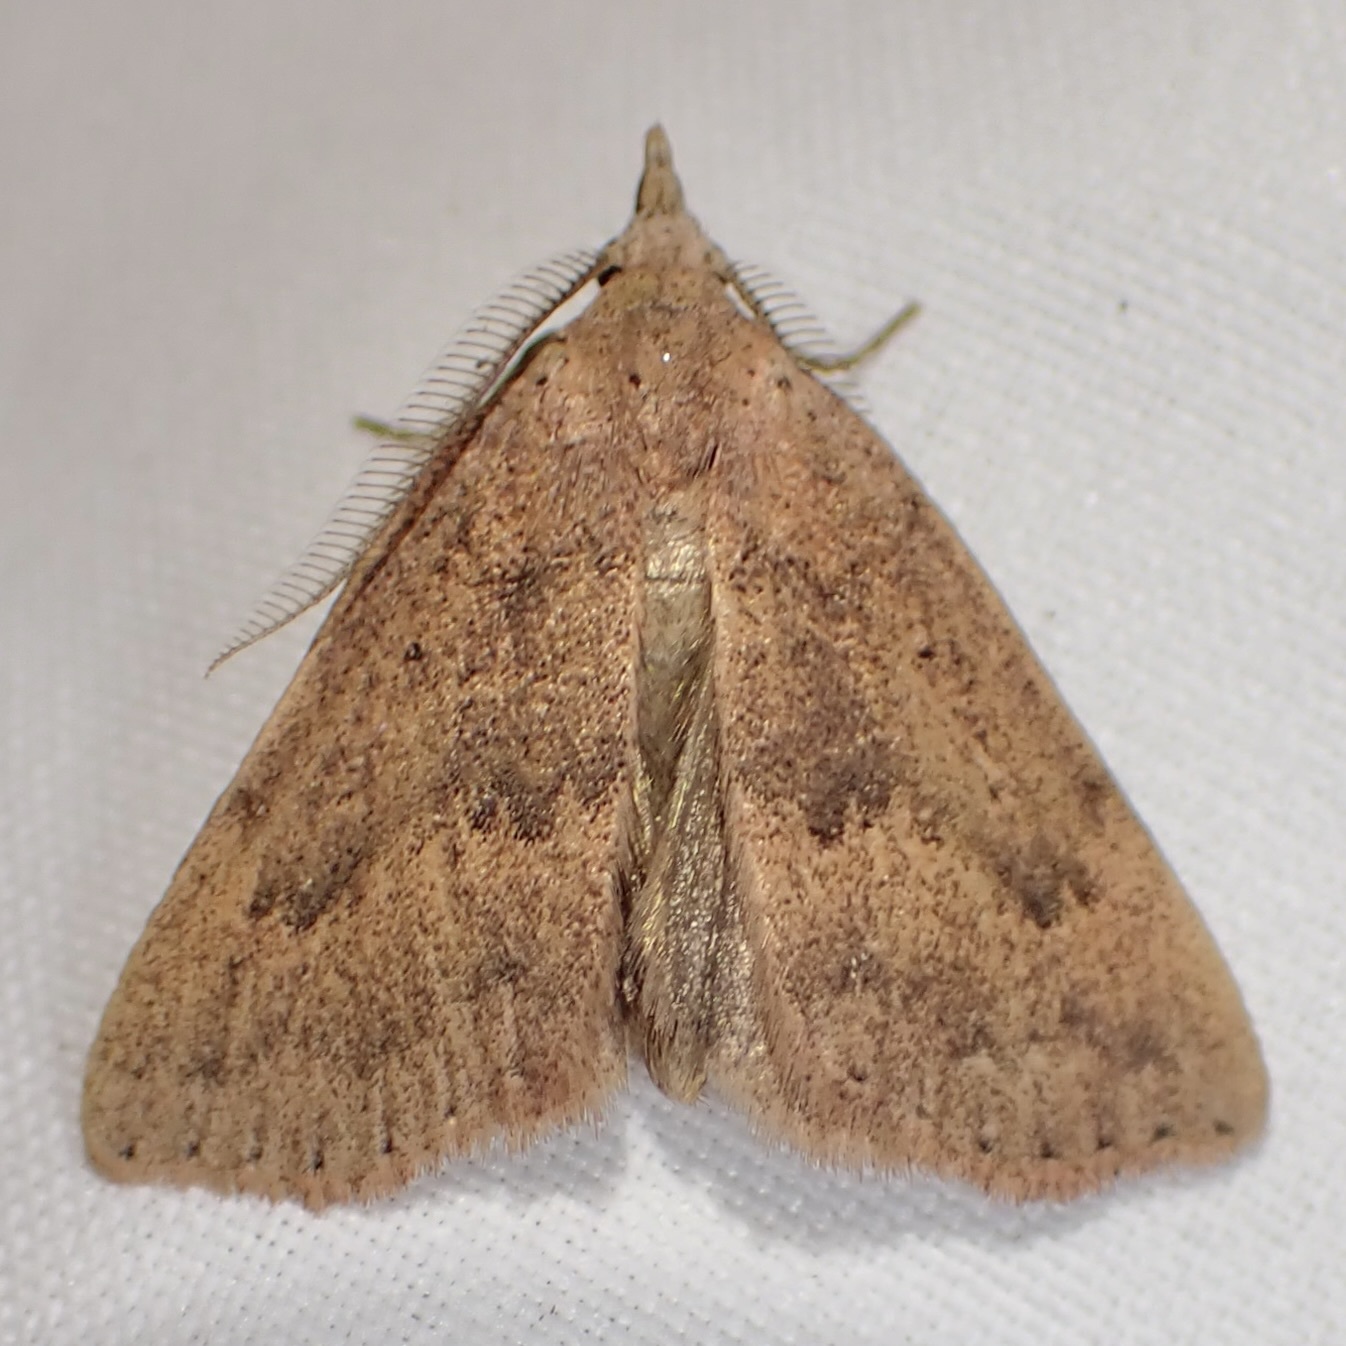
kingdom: Animalia
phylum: Arthropoda
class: Insecta
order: Lepidoptera
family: Erebidae
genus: Pseudorgyia
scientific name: Pseudorgyia russula
